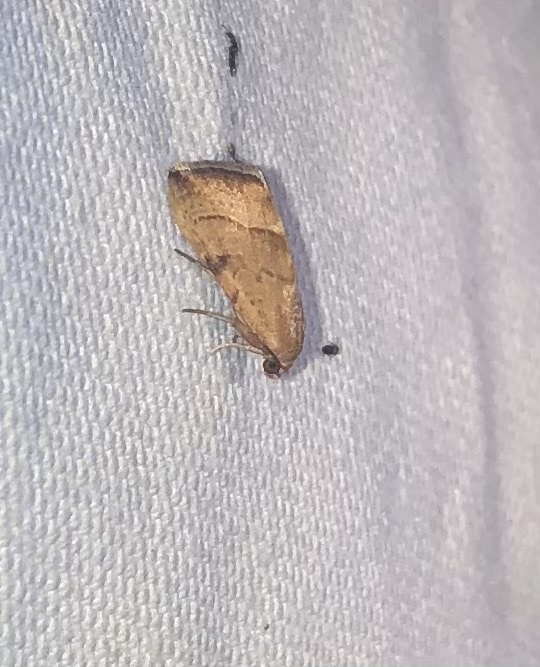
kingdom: Animalia
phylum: Arthropoda
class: Insecta
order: Lepidoptera
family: Noctuidae
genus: Galgula
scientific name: Galgula partita
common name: Wedgeling
